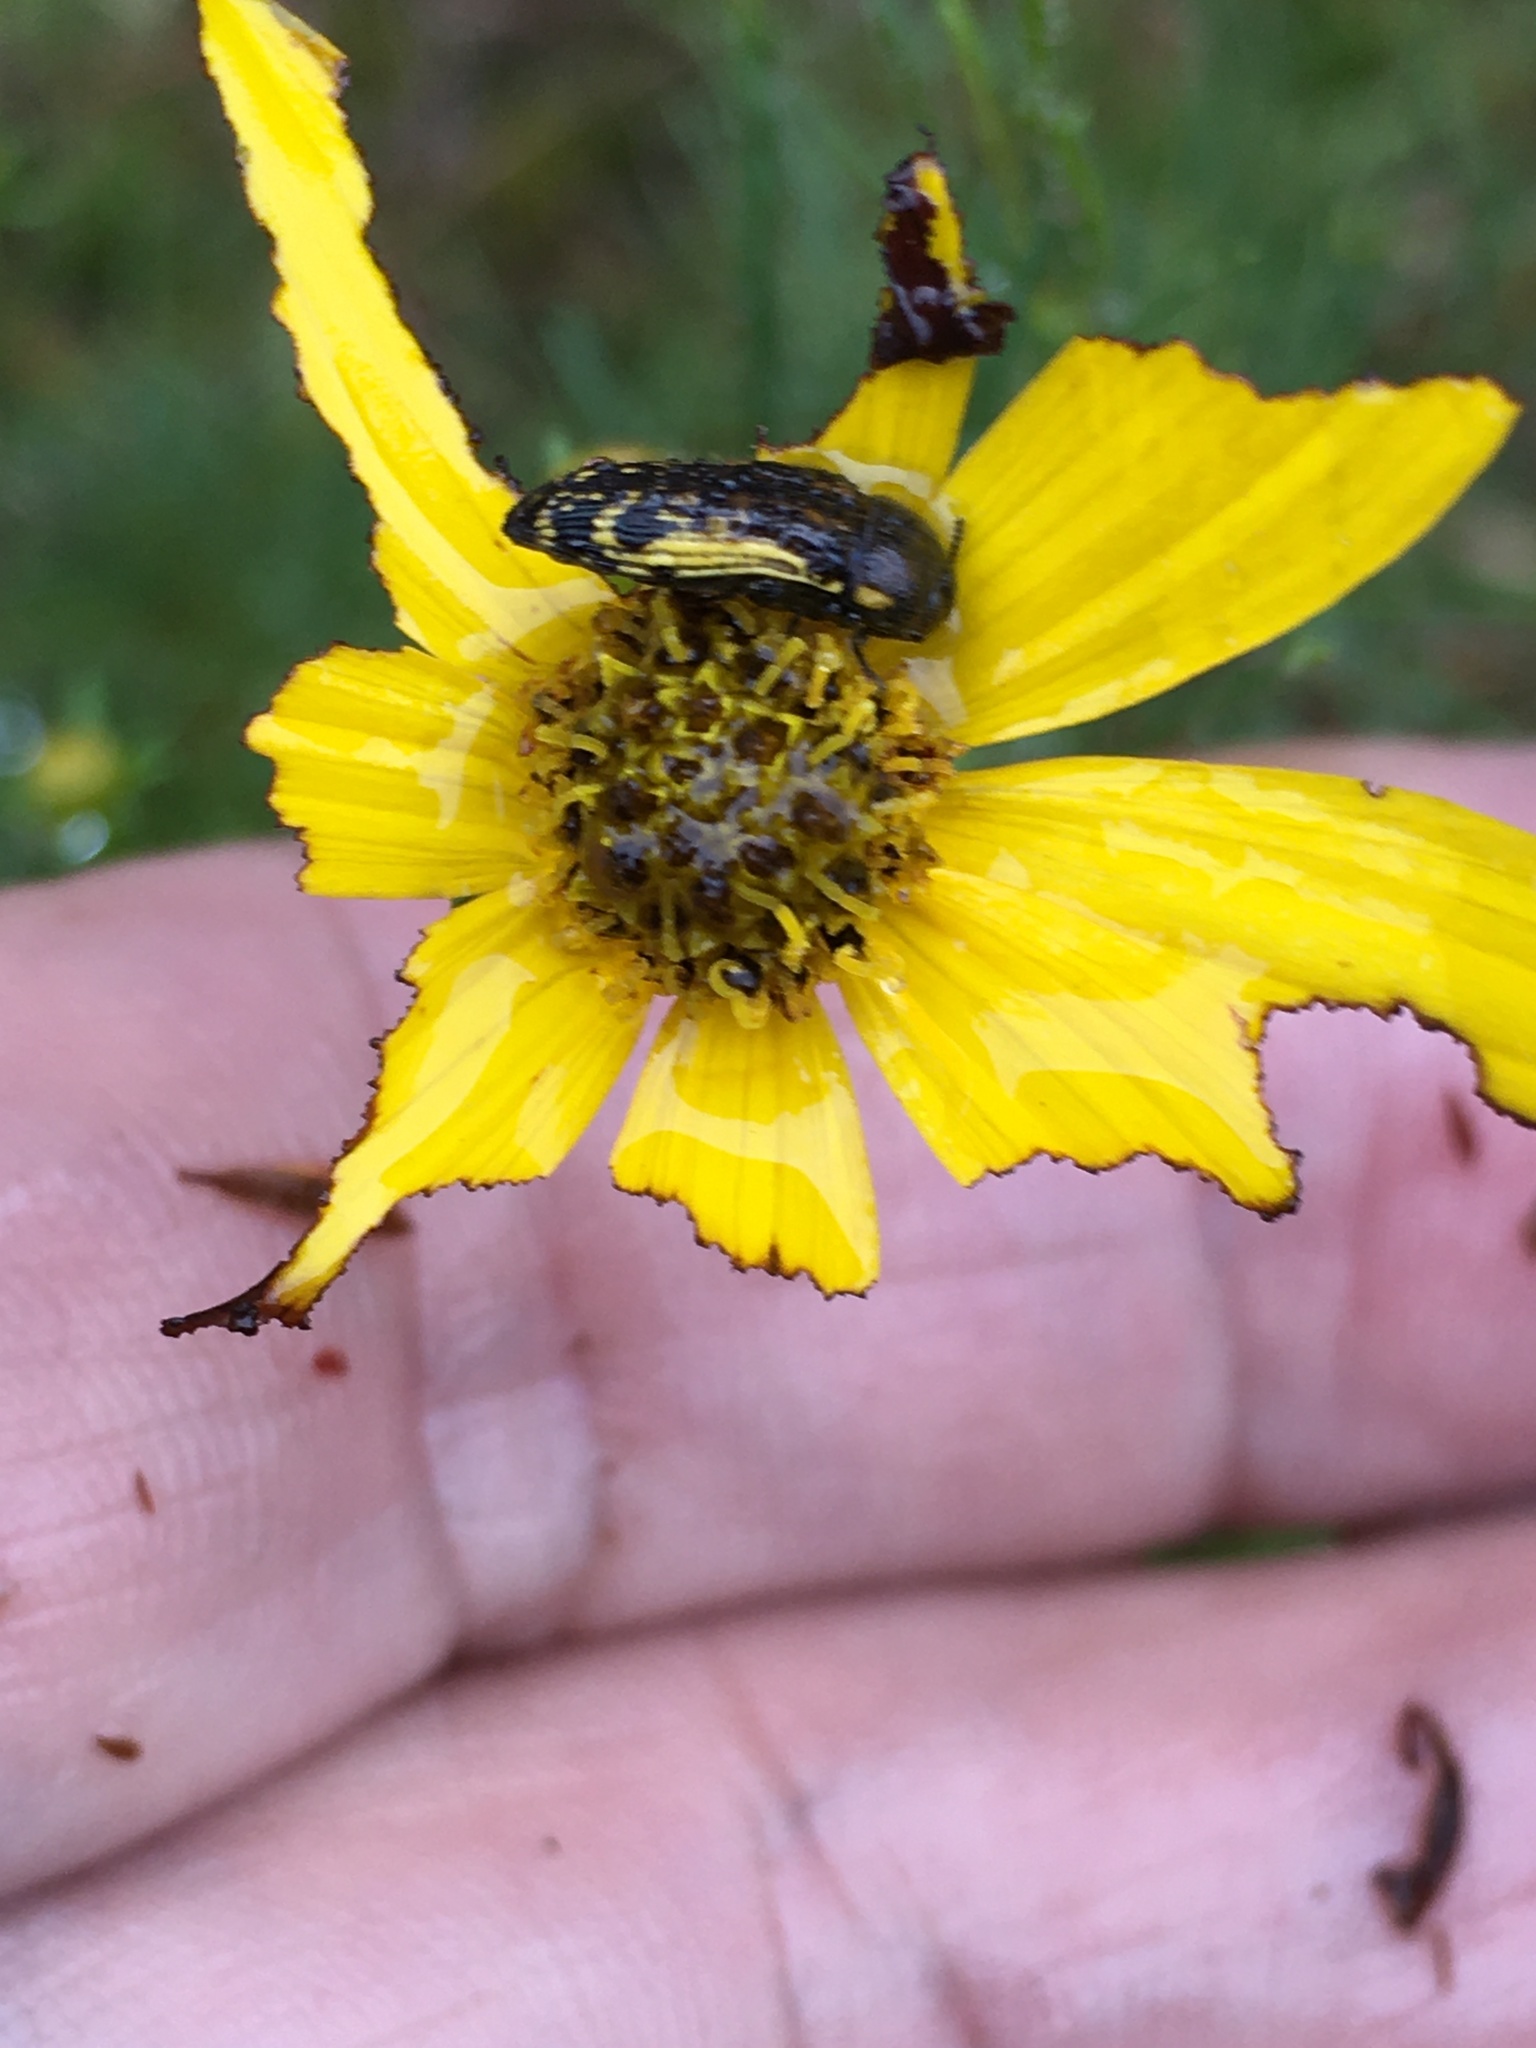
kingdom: Animalia
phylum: Arthropoda
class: Insecta
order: Coleoptera
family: Buprestidae
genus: Acmaeodera
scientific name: Acmaeodera pulchella
